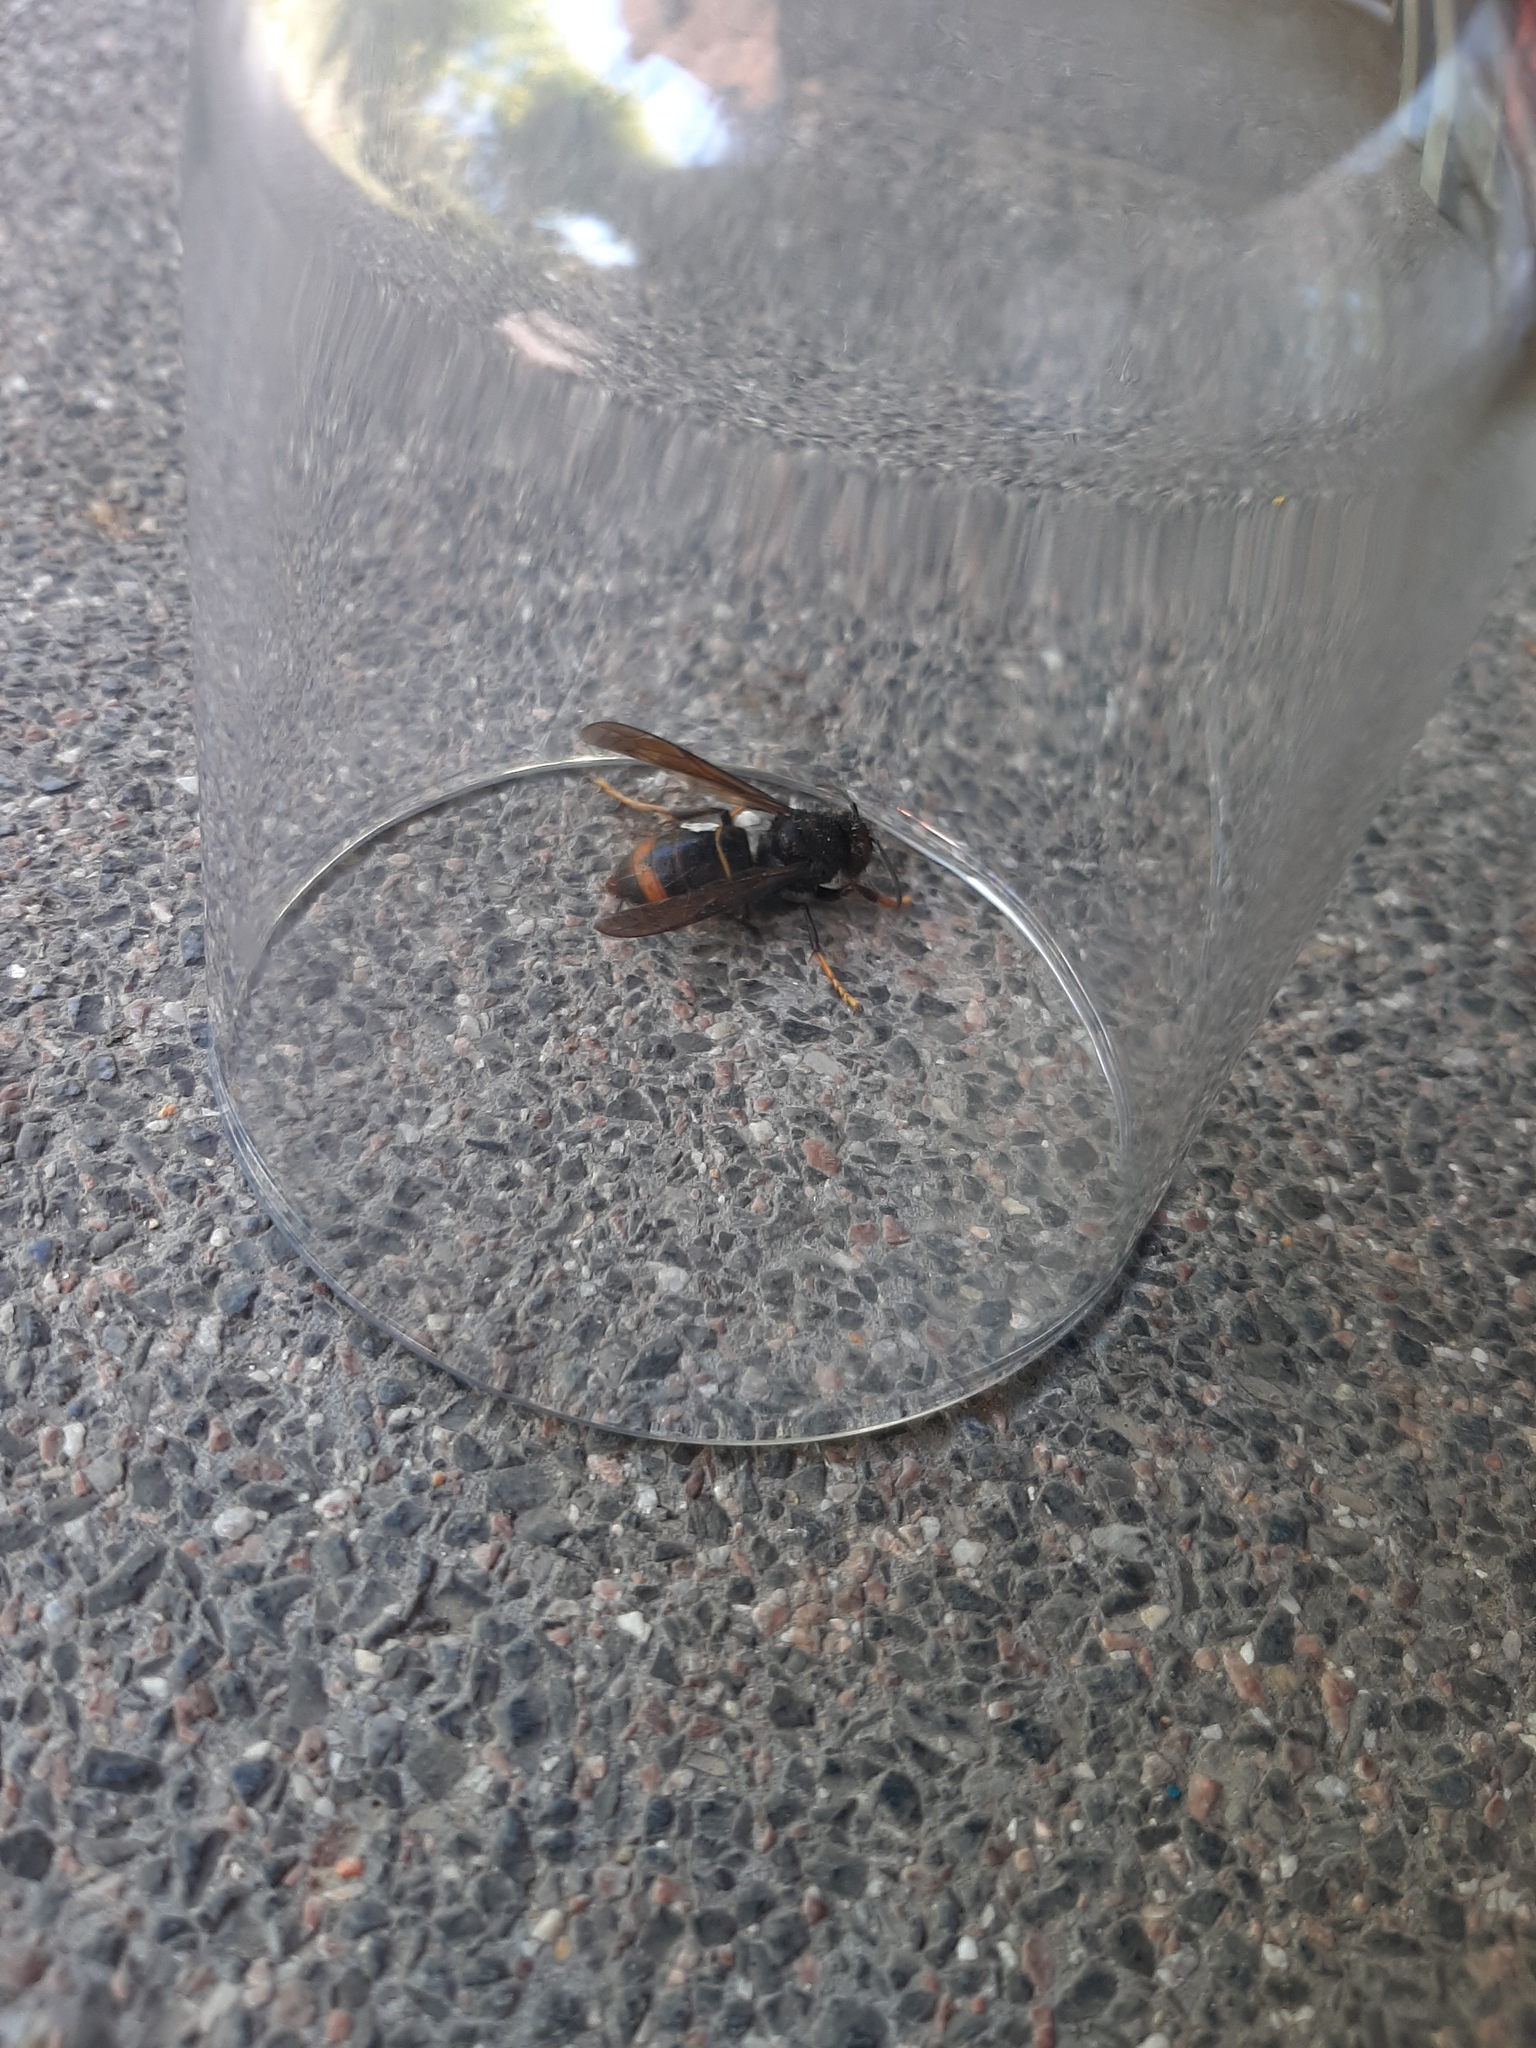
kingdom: Animalia
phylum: Arthropoda
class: Insecta
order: Hymenoptera
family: Vespidae
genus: Vespa
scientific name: Vespa velutina
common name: Asian hornet
